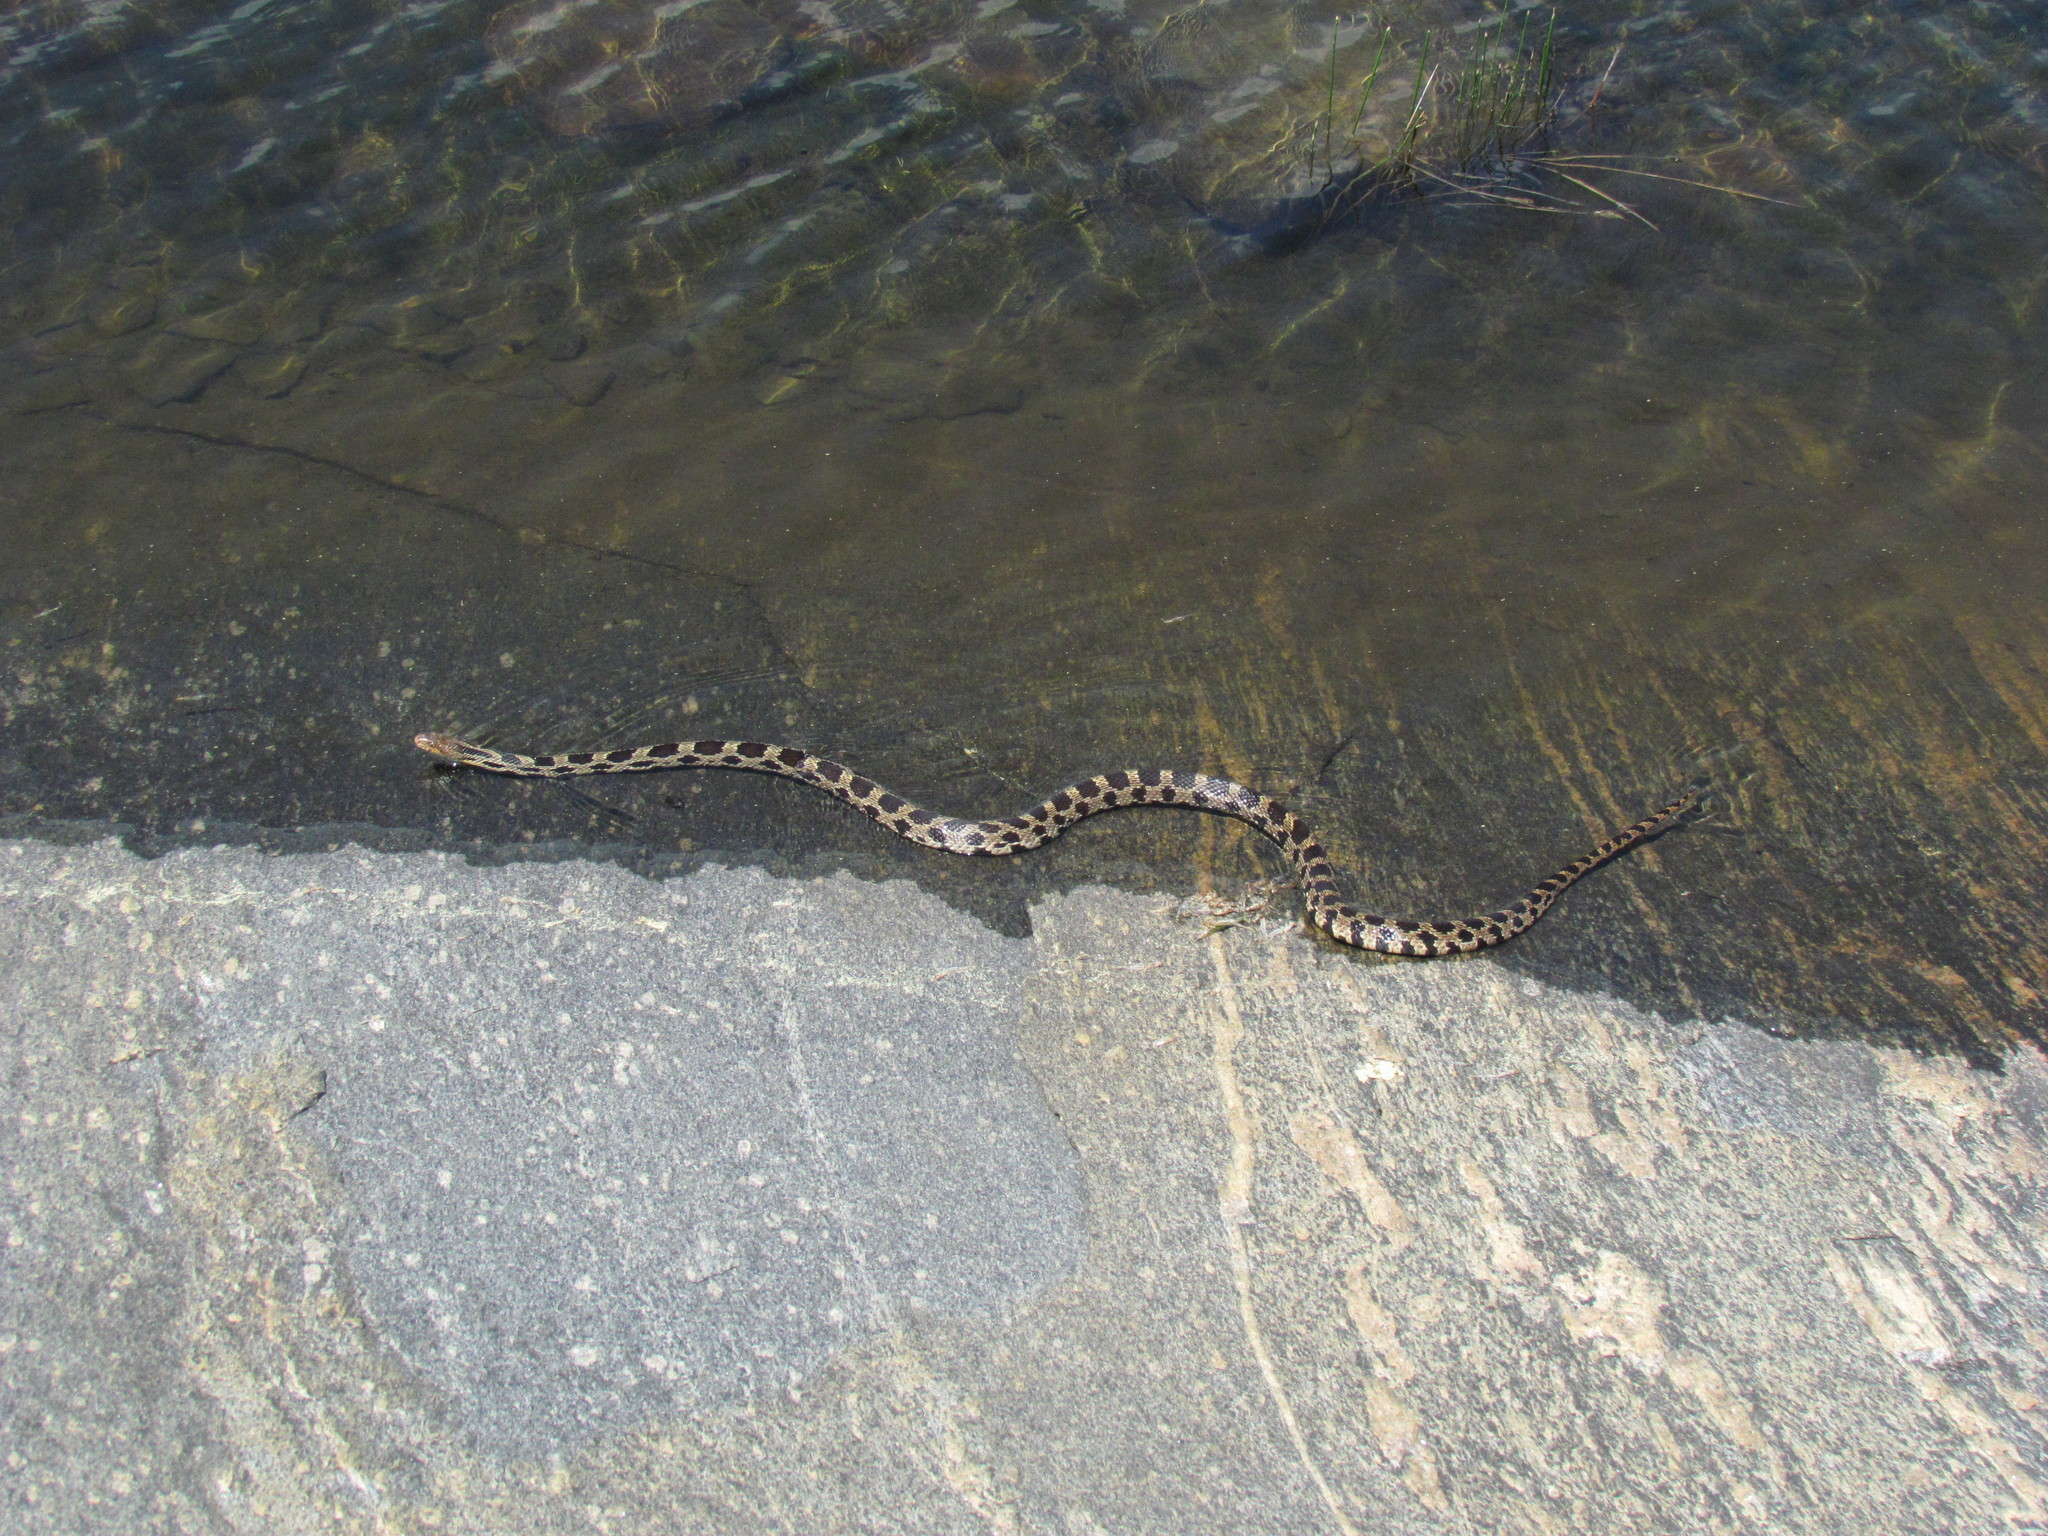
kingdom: Animalia
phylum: Chordata
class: Squamata
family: Colubridae
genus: Pantherophis
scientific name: Pantherophis vulpinus
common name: Eastern fox snake
